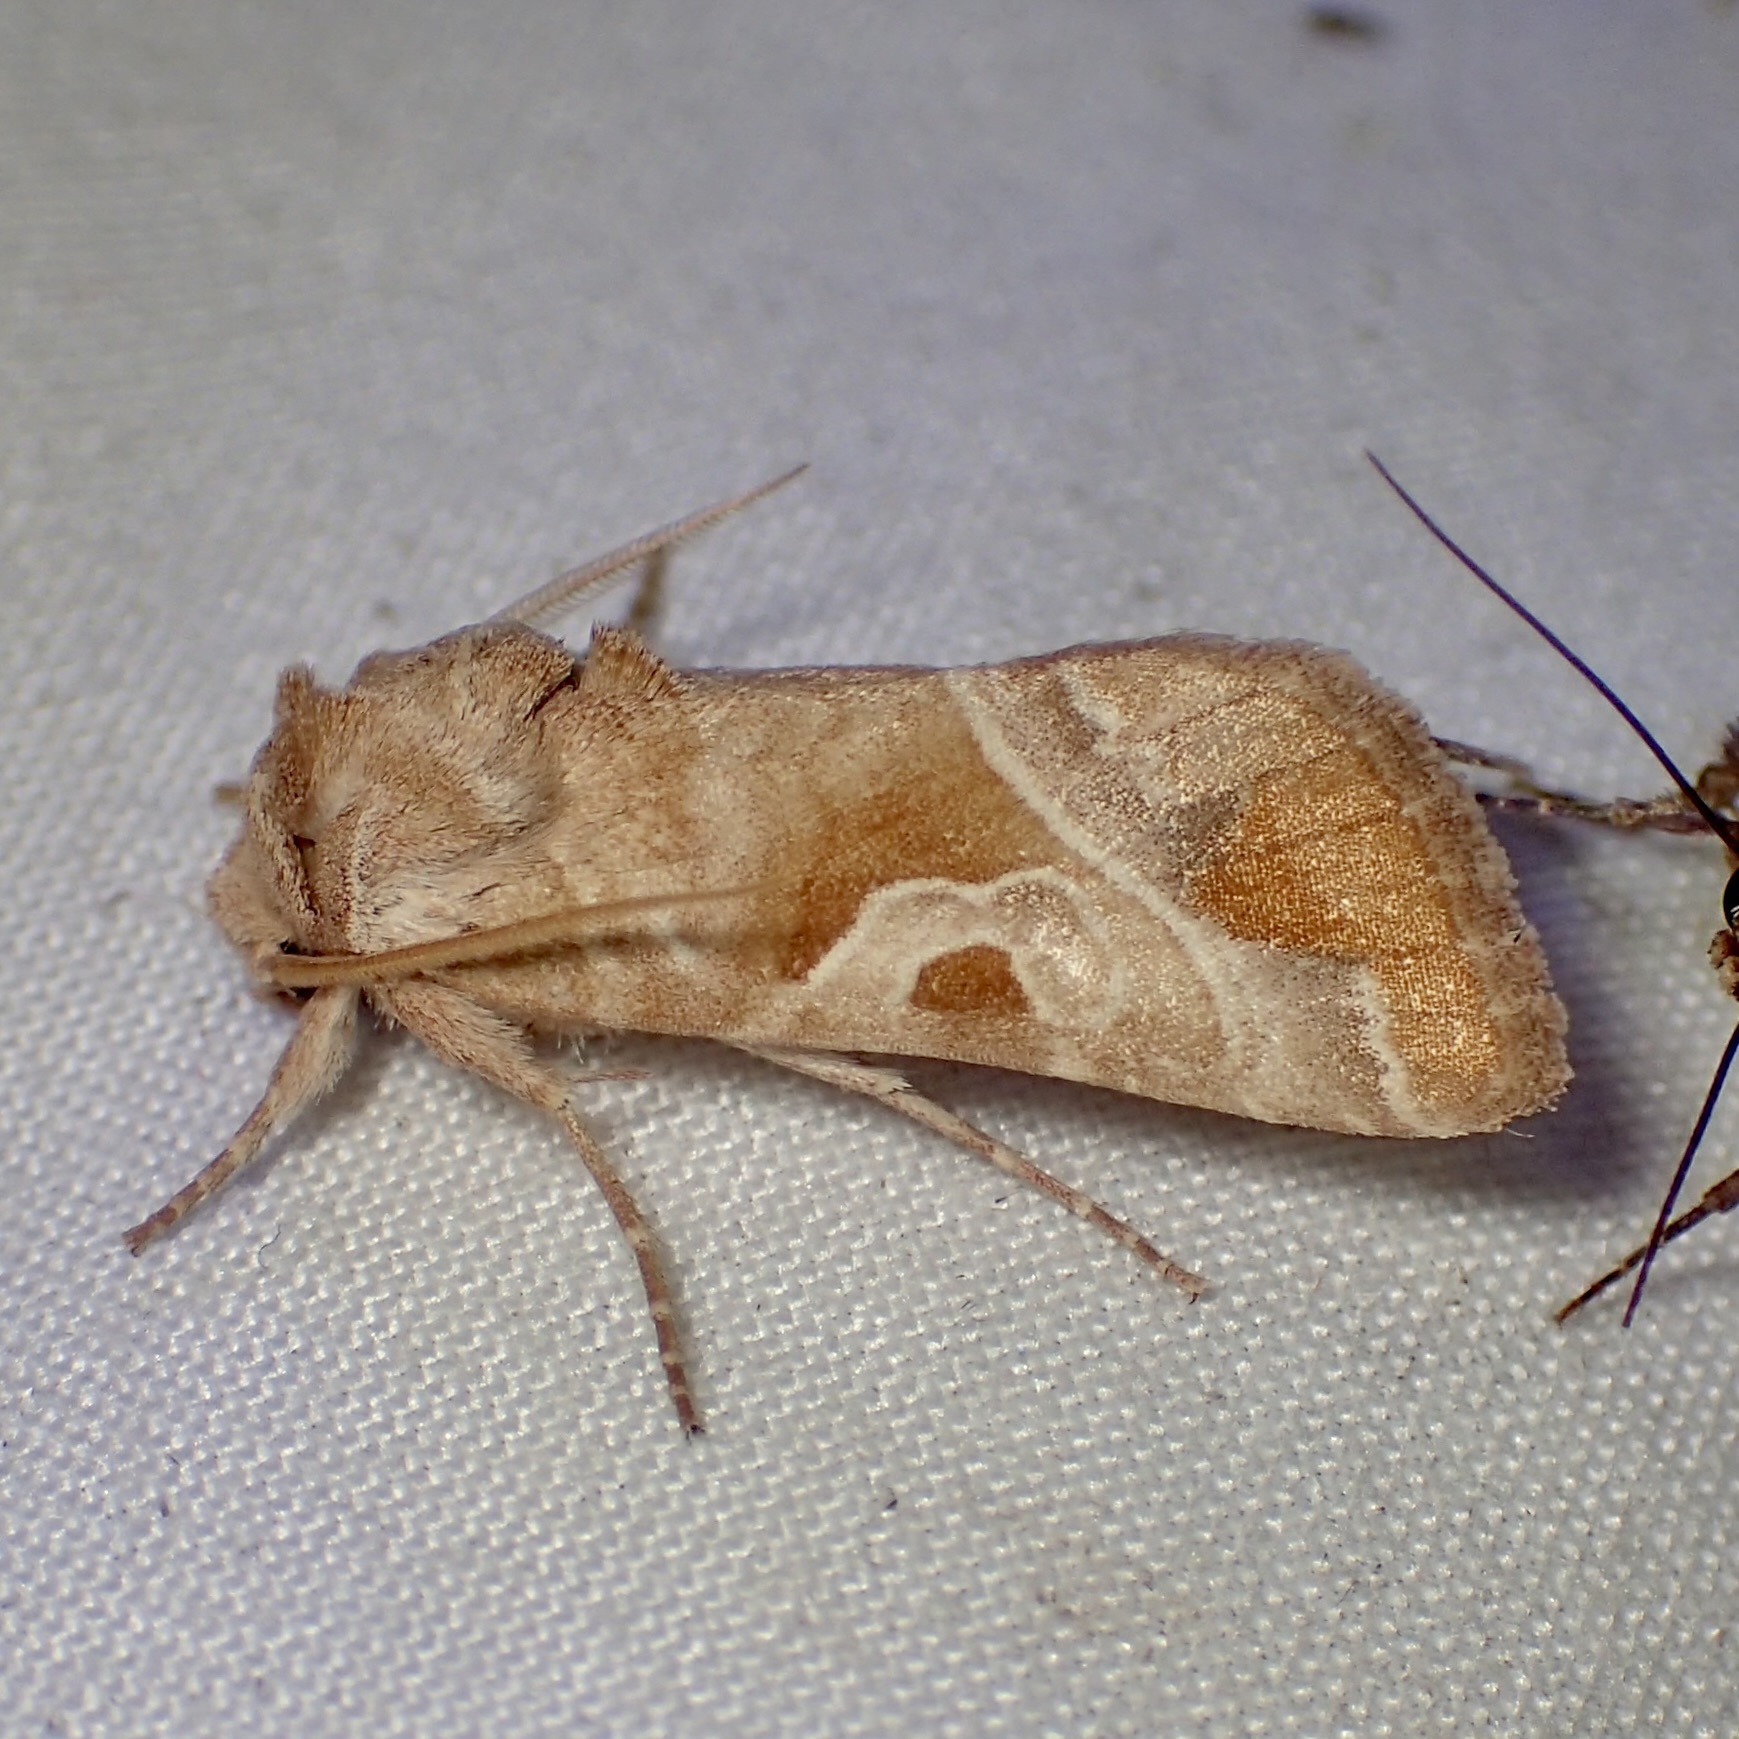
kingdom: Animalia
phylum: Arthropoda
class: Insecta
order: Lepidoptera
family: Noctuidae
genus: Hexorthodes
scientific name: Hexorthodes accurata
